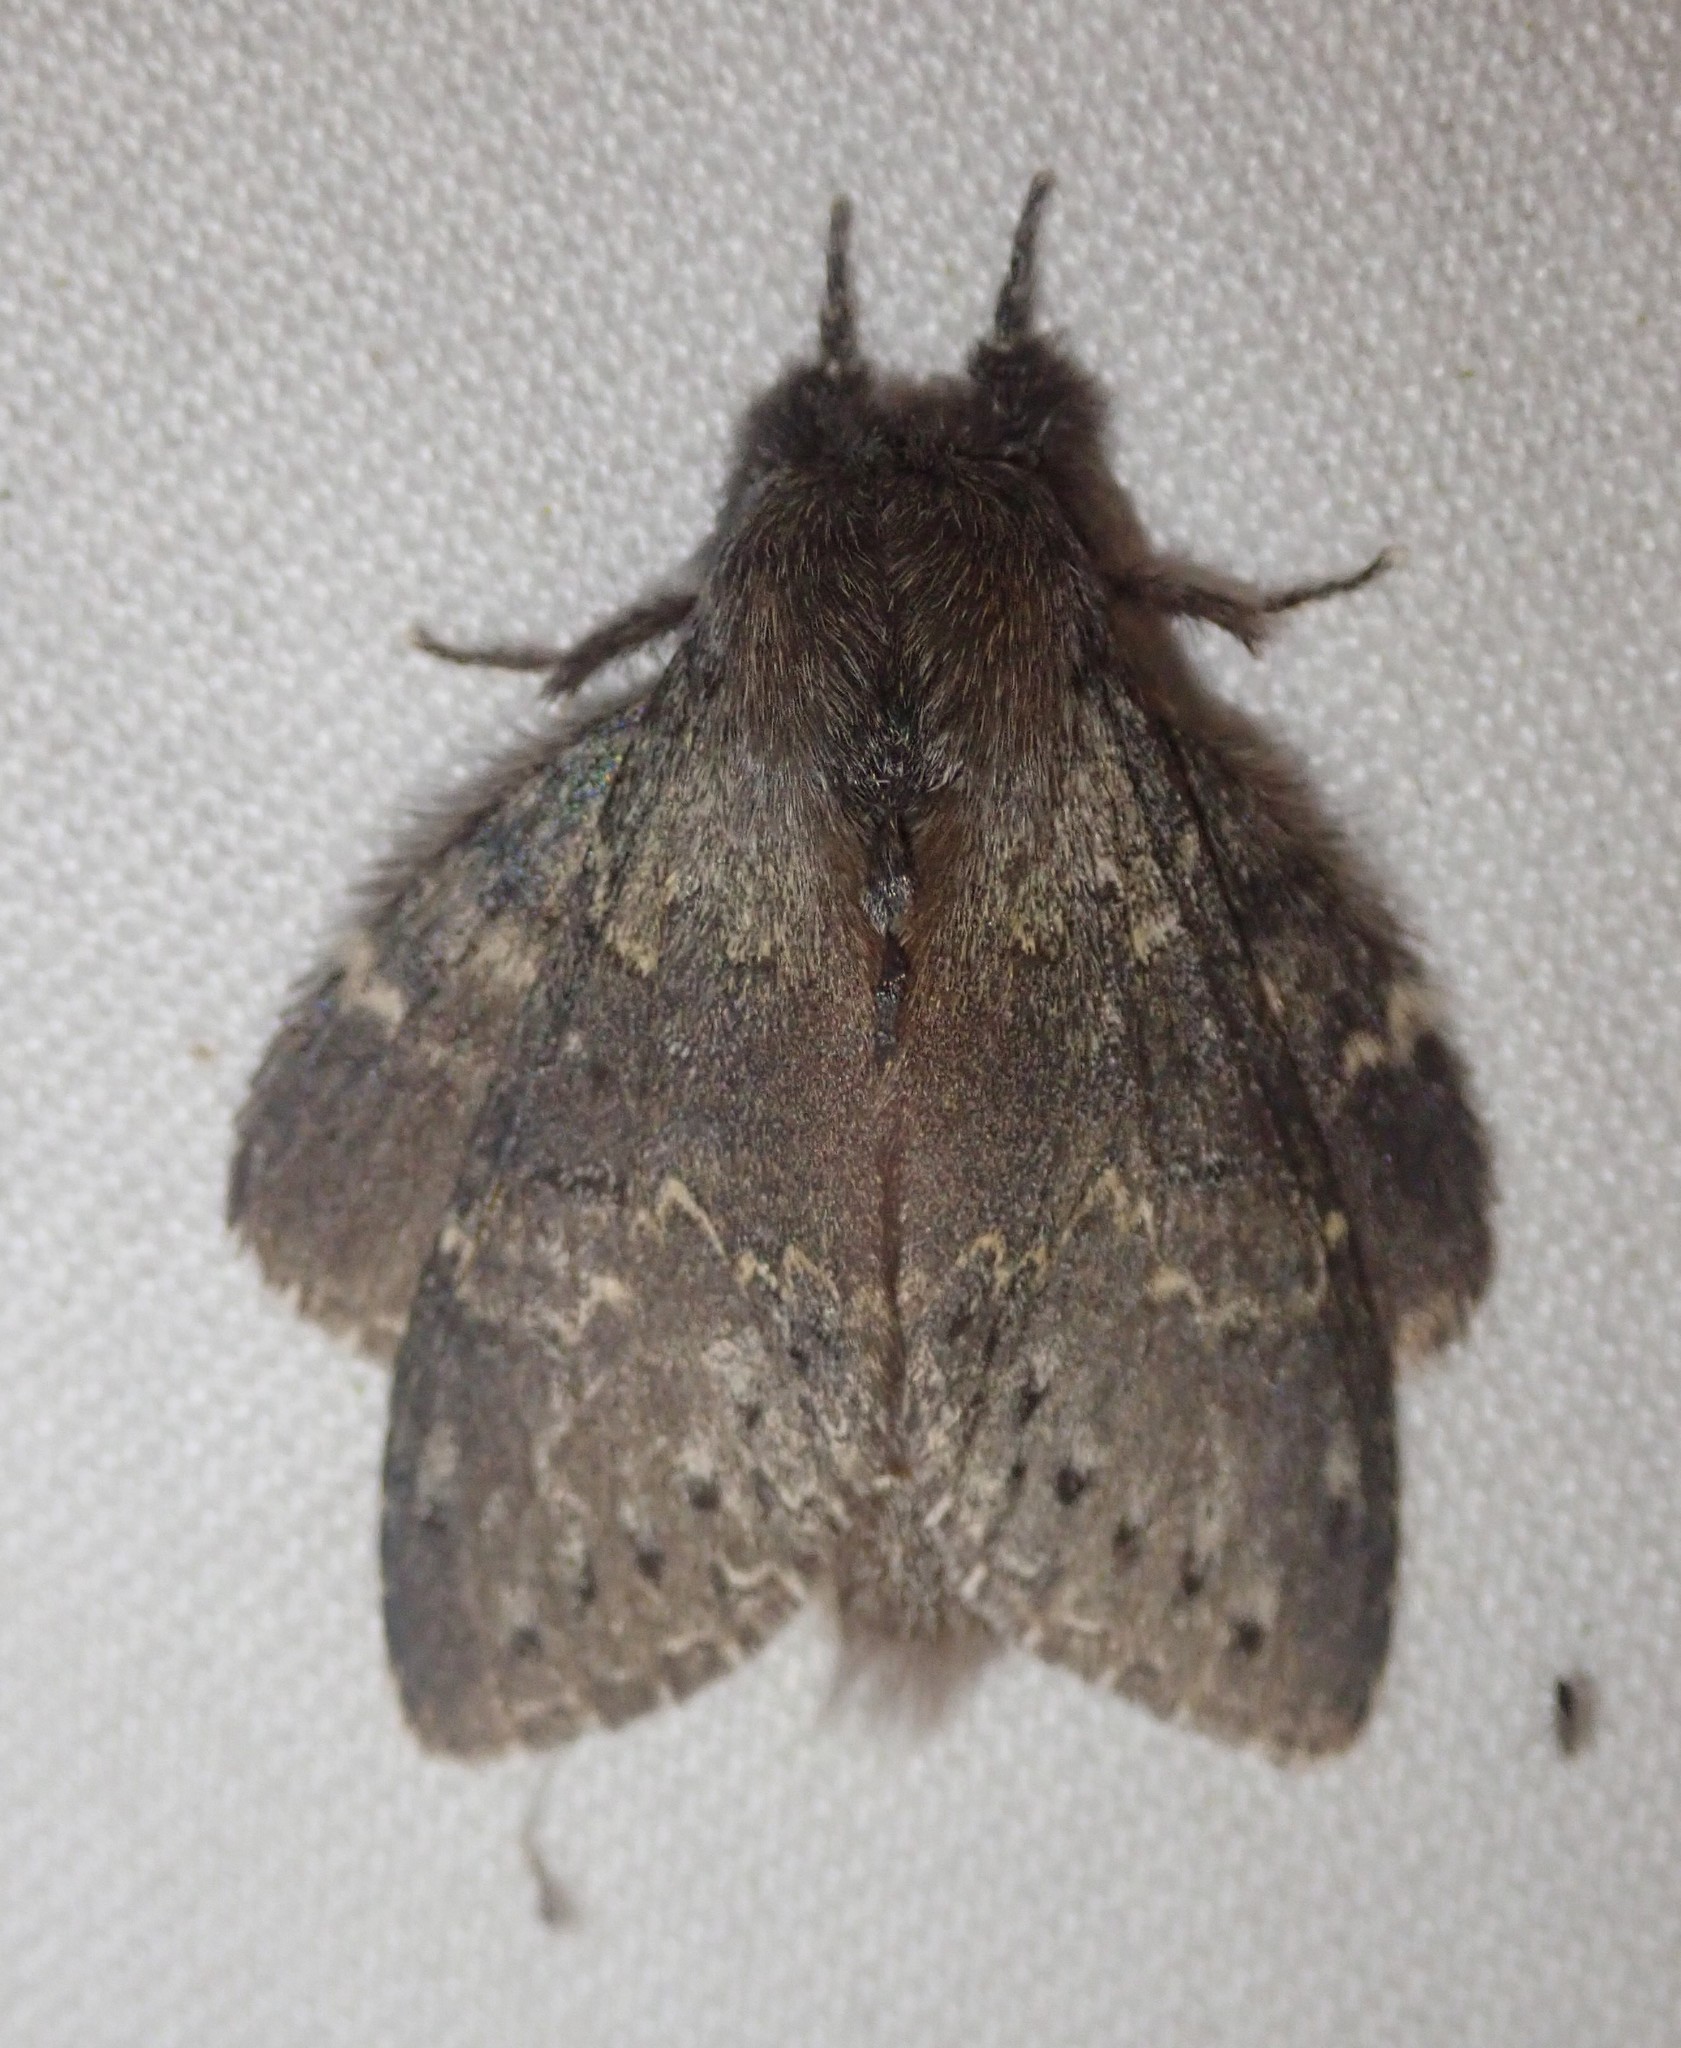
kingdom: Animalia
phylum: Arthropoda
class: Insecta
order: Lepidoptera
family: Notodontidae
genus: Stauropus
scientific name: Stauropus fagi
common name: Lobster moth
